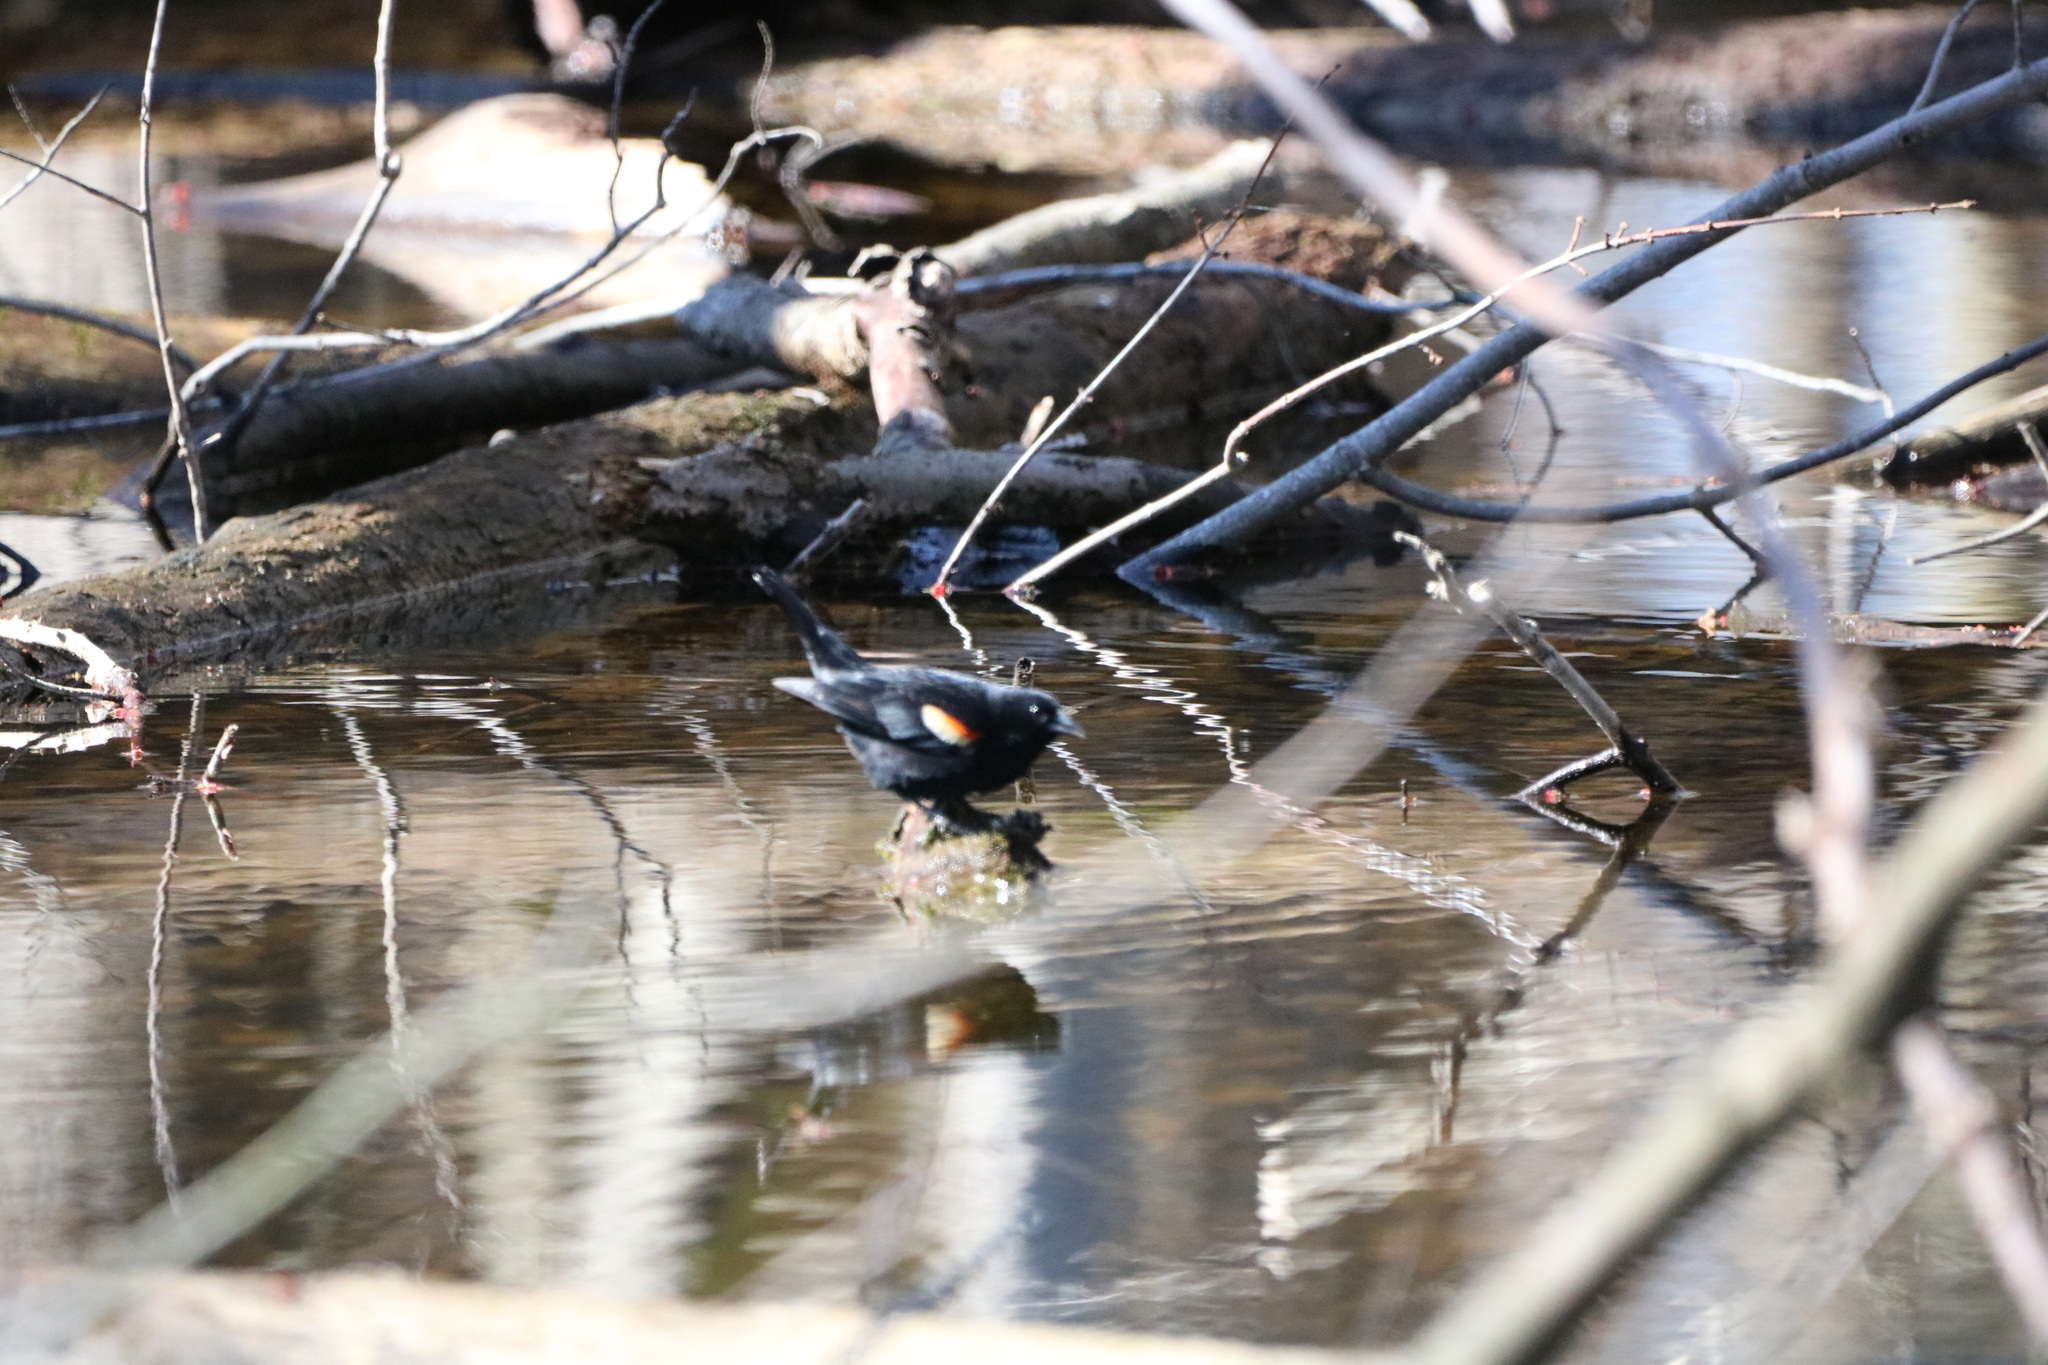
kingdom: Animalia
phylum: Chordata
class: Aves
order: Passeriformes
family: Icteridae
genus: Agelaius
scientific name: Agelaius phoeniceus
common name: Red-winged blackbird
